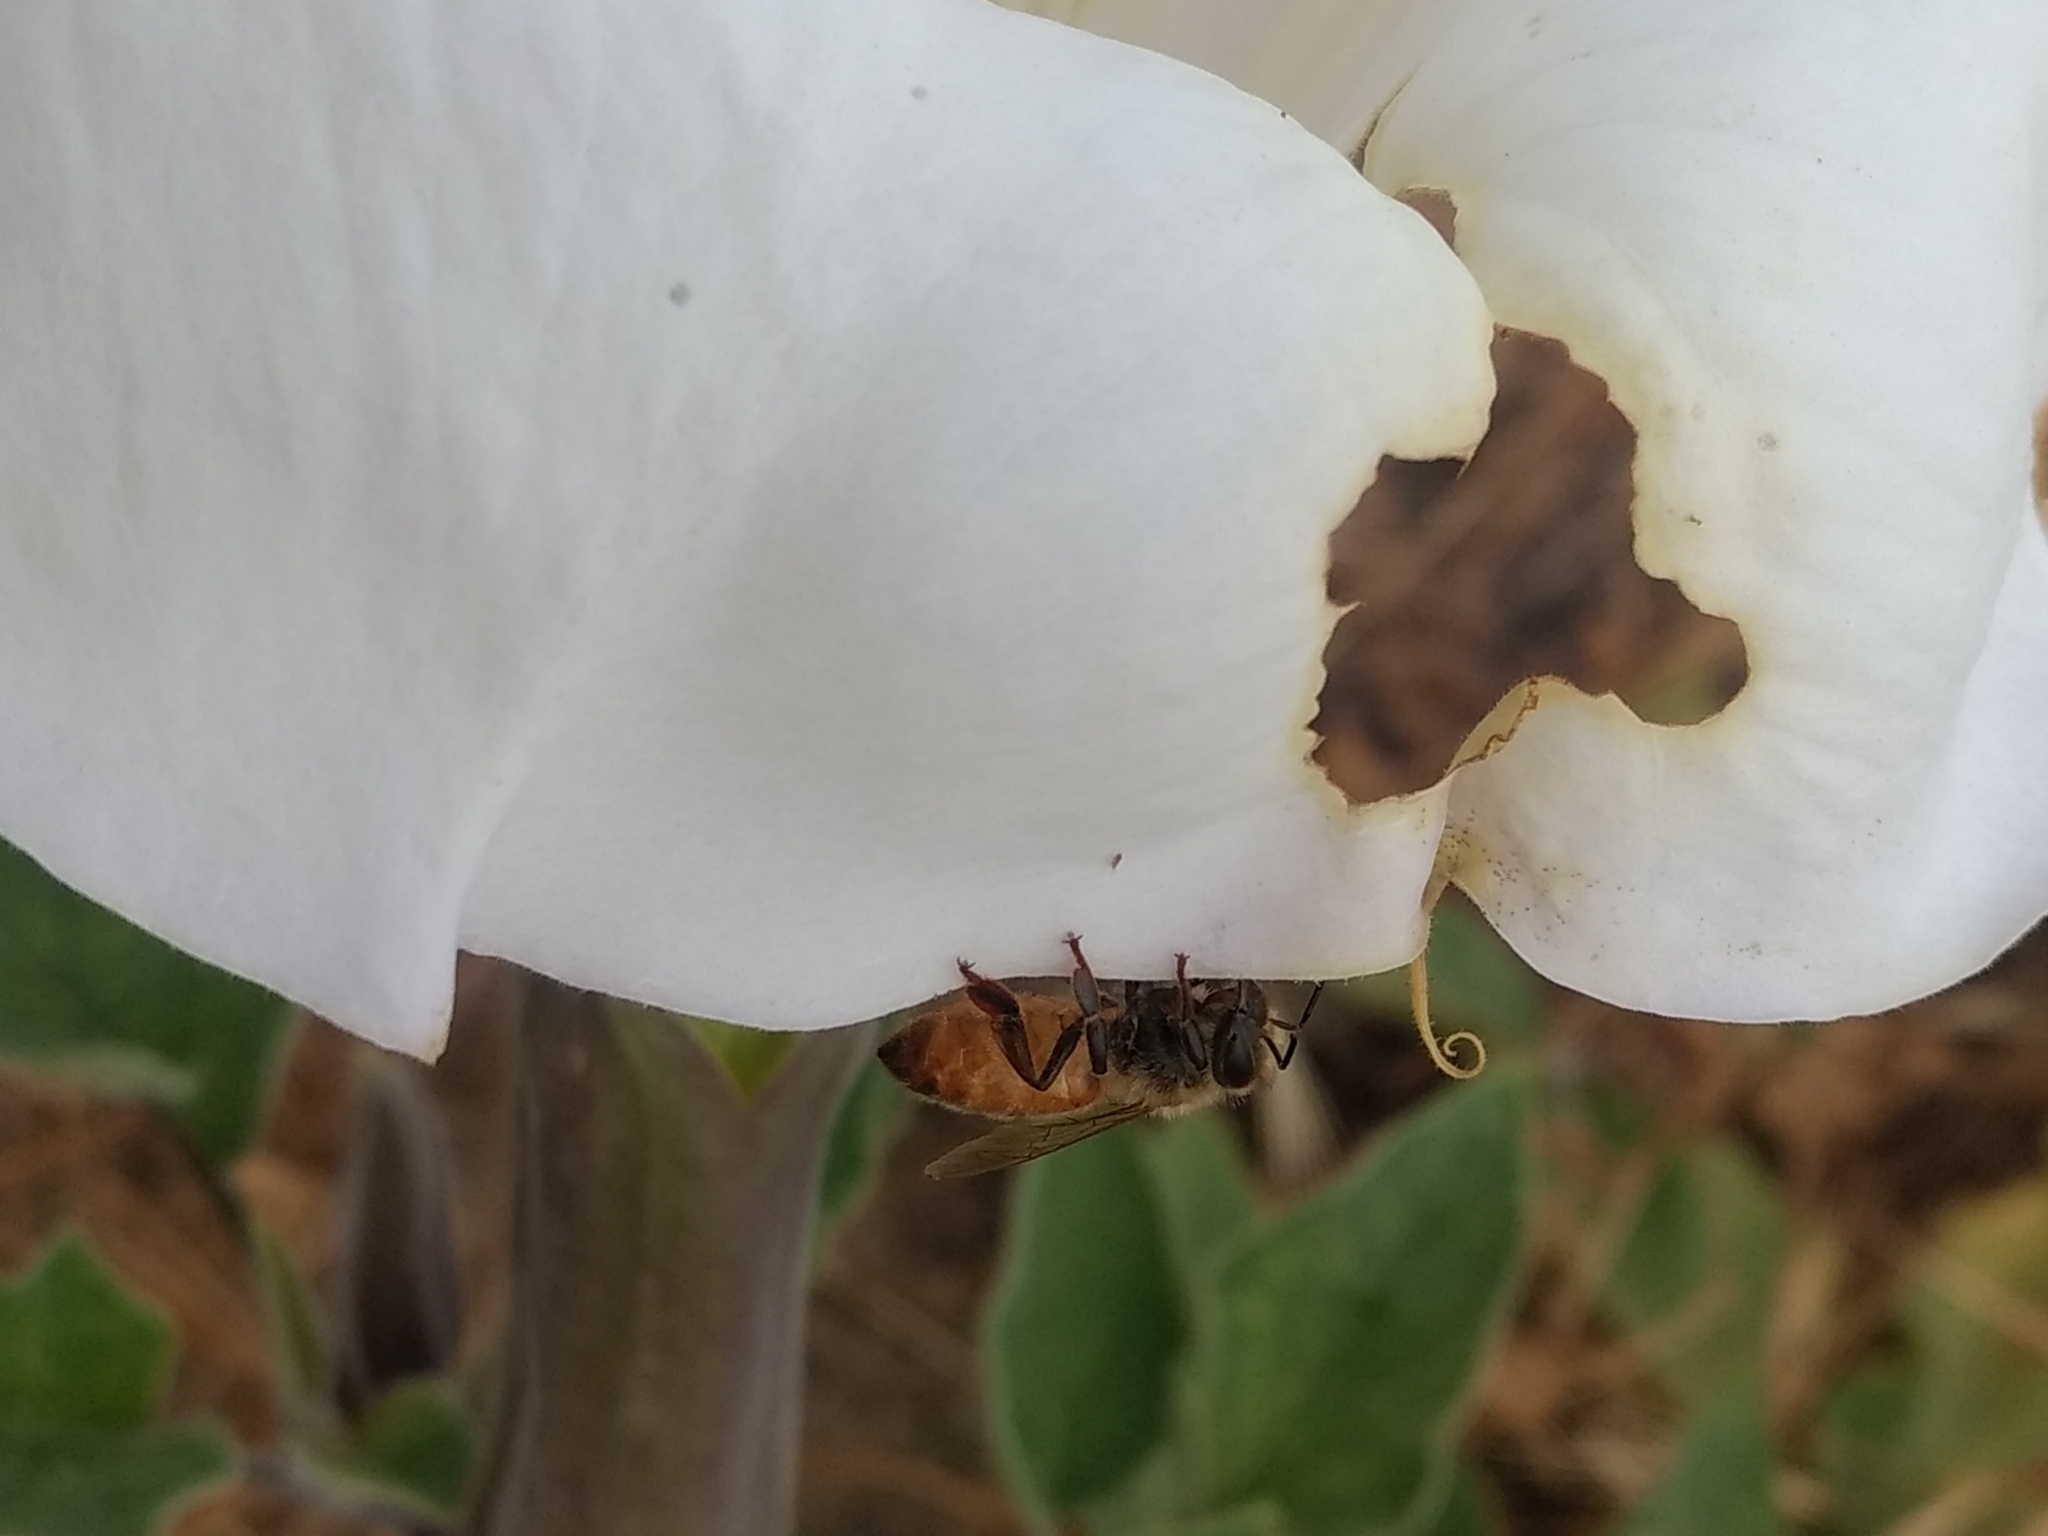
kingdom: Animalia
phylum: Arthropoda
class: Insecta
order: Hymenoptera
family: Apidae
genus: Apis
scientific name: Apis mellifera
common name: Honey bee
